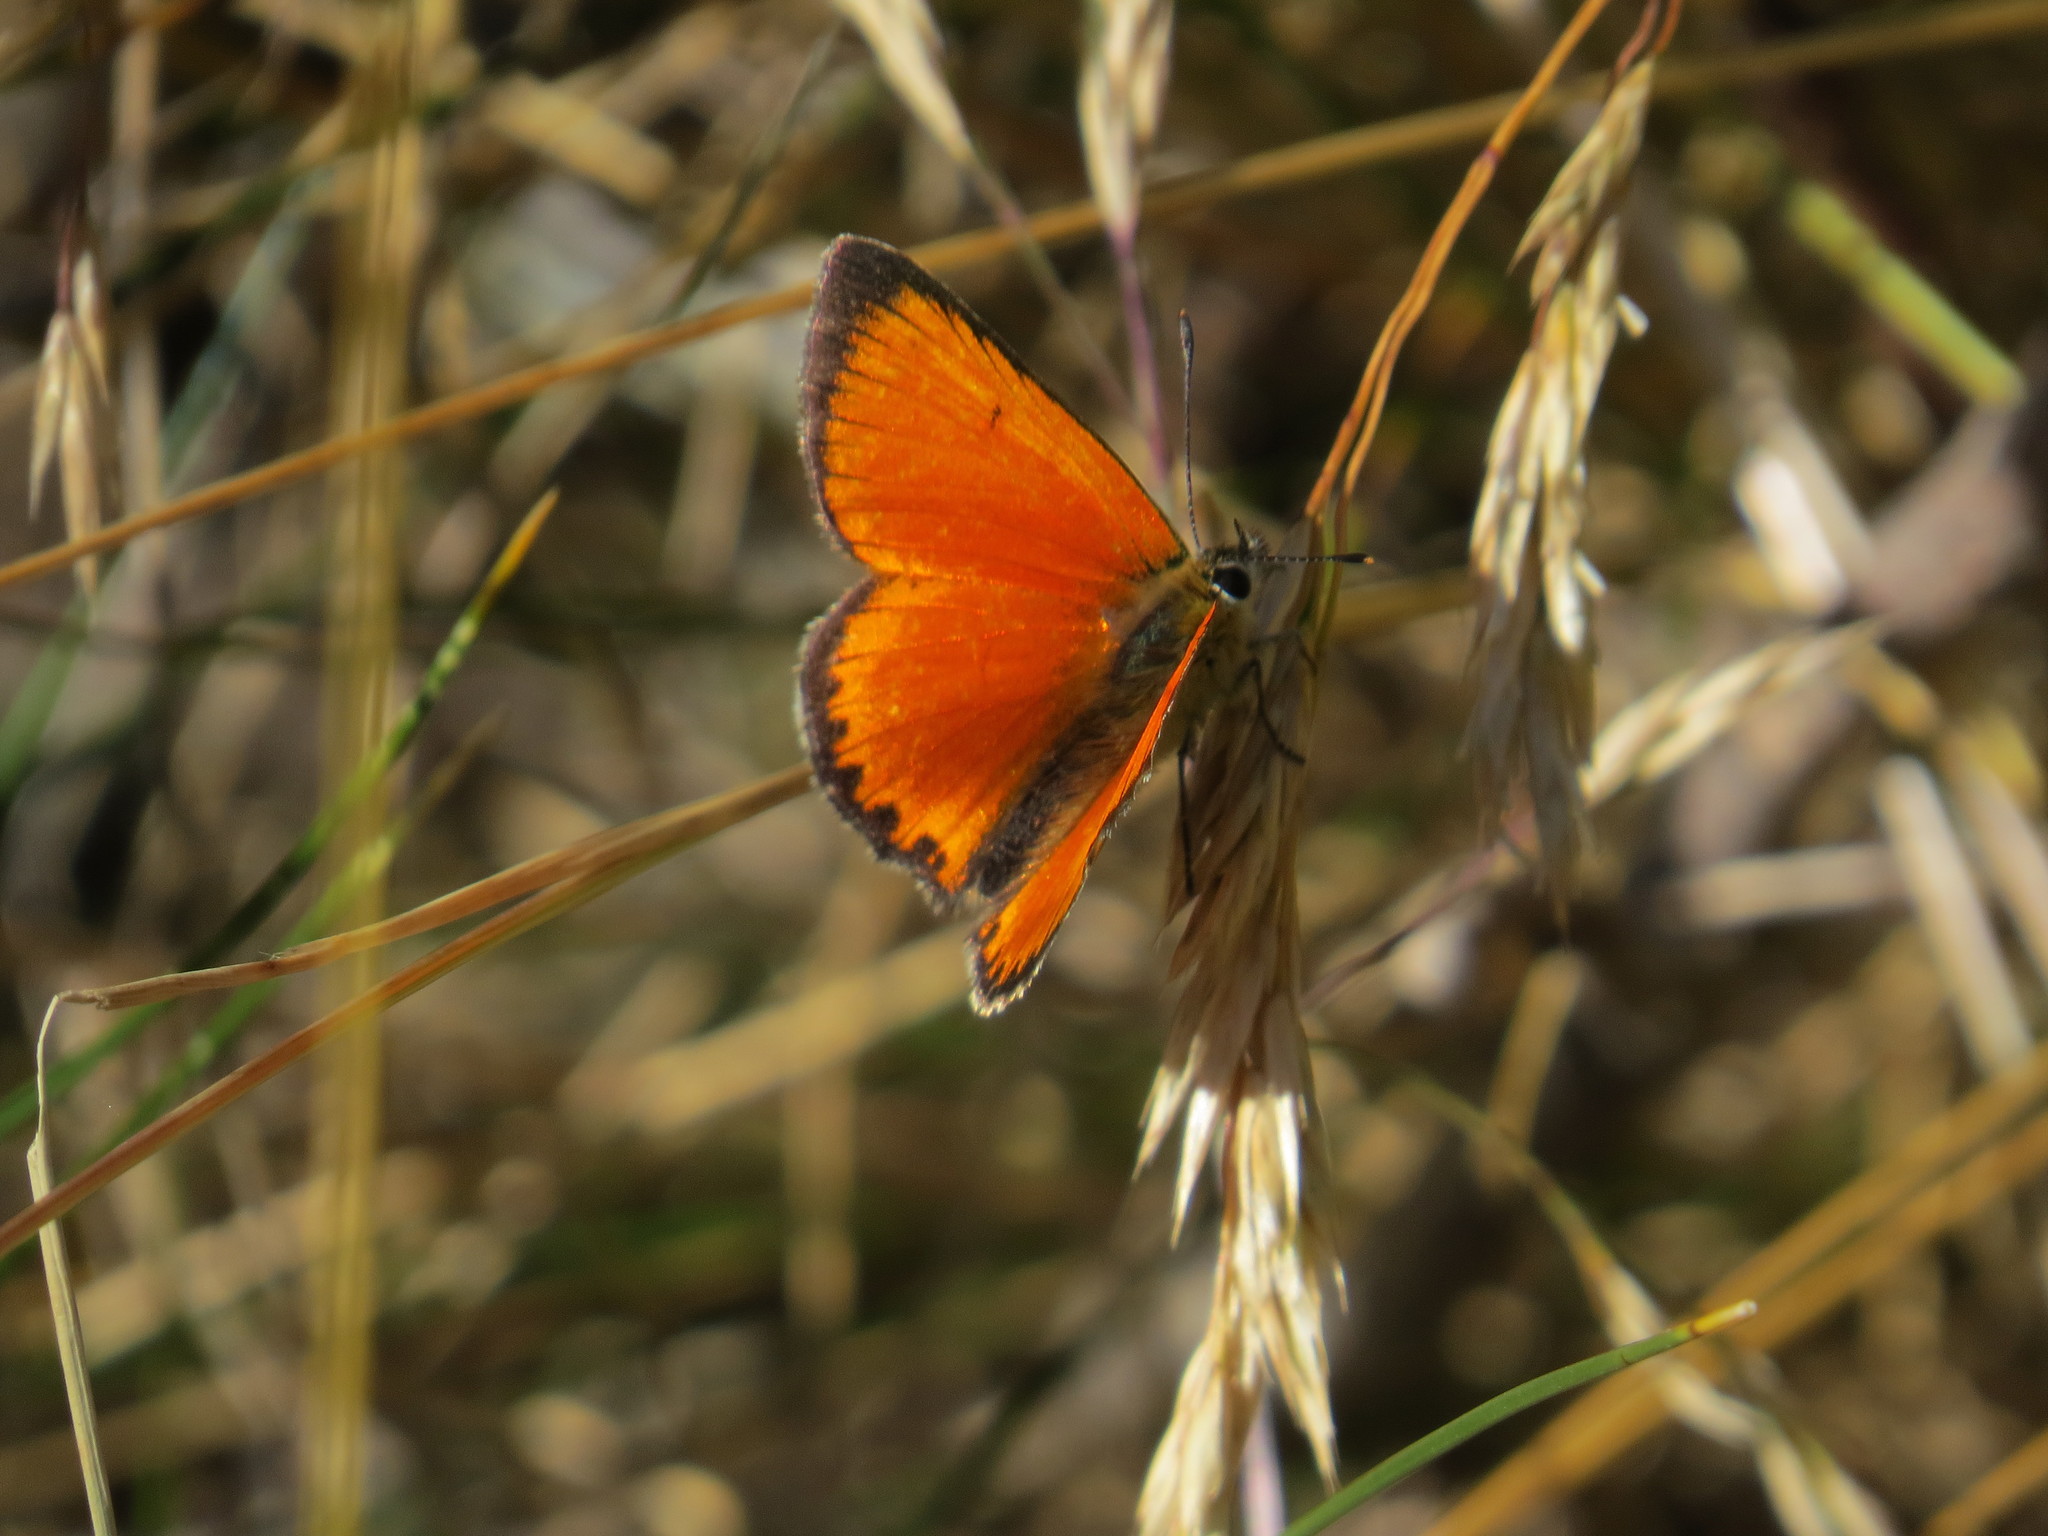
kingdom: Animalia
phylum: Arthropoda
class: Insecta
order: Lepidoptera
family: Lycaenidae
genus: Lycaena
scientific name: Lycaena virgaureae
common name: Scarce copper
